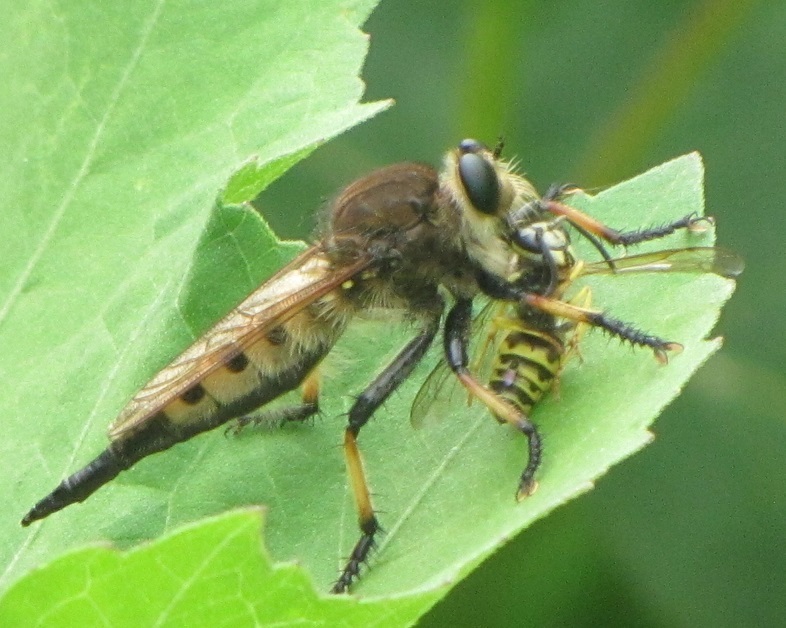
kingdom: Animalia
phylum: Arthropoda
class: Insecta
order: Diptera
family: Asilidae
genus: Promachus
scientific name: Promachus rufipes
